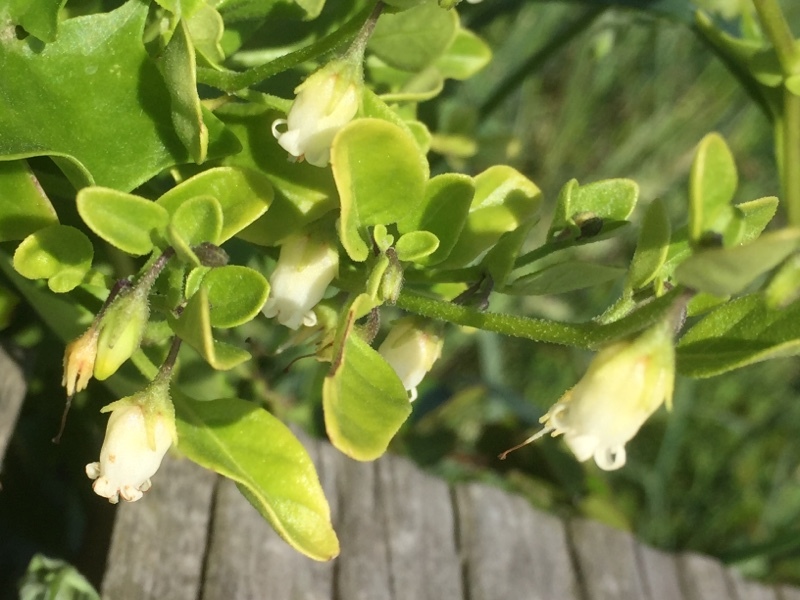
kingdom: Plantae
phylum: Tracheophyta
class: Magnoliopsida
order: Solanales
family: Solanaceae
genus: Salpichroa
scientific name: Salpichroa origanifolia
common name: Lily-of-the-valley-vine
